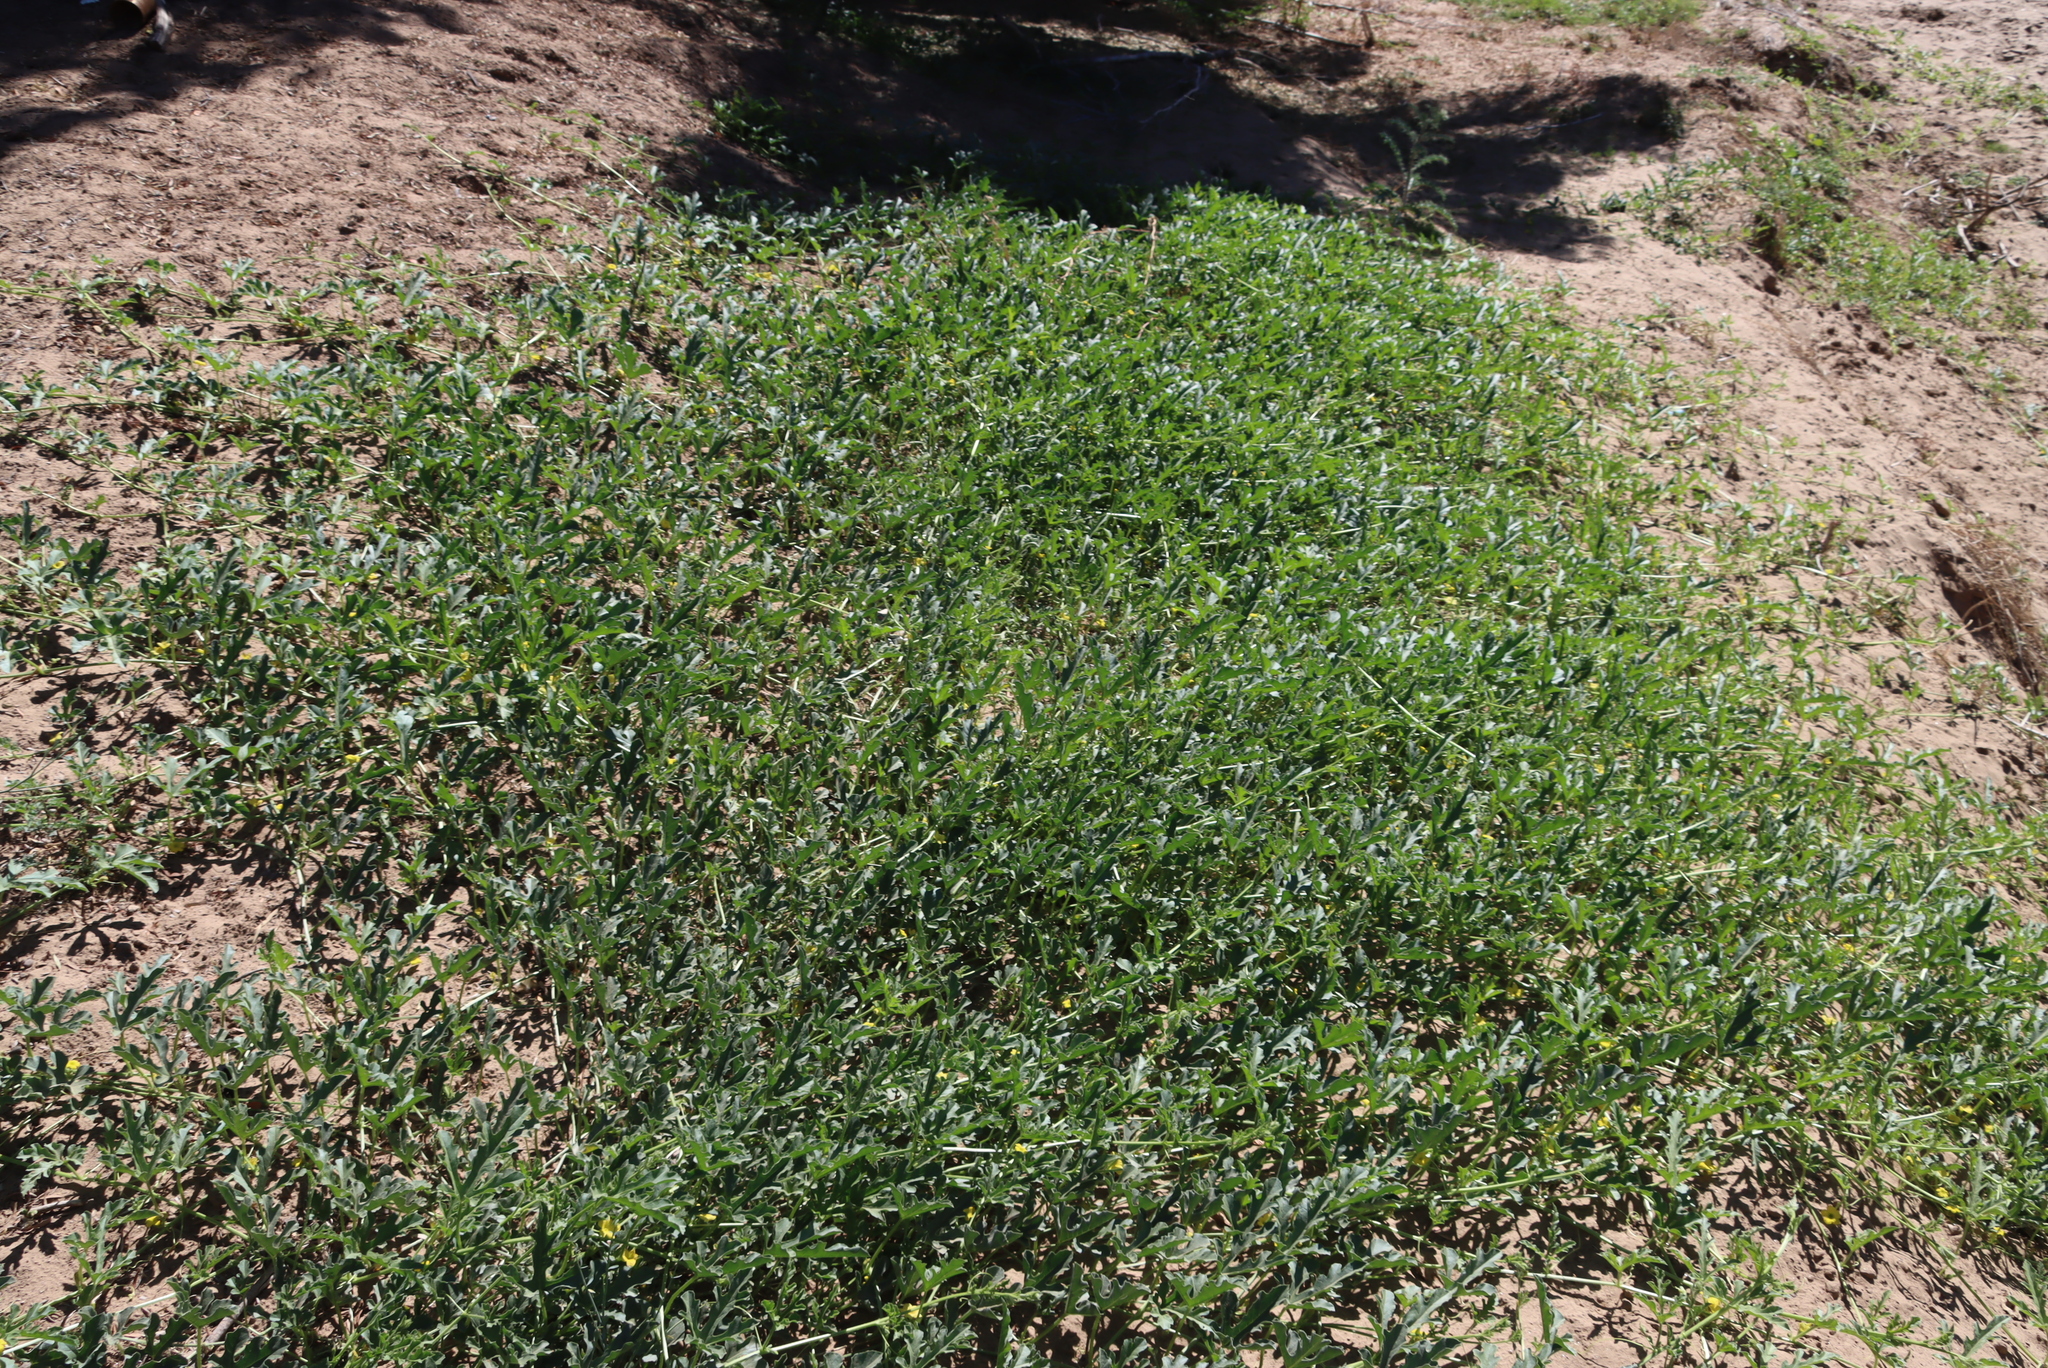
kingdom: Plantae
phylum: Tracheophyta
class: Magnoliopsida
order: Cucurbitales
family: Cucurbitaceae
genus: Cucumis
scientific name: Cucumis africanus
